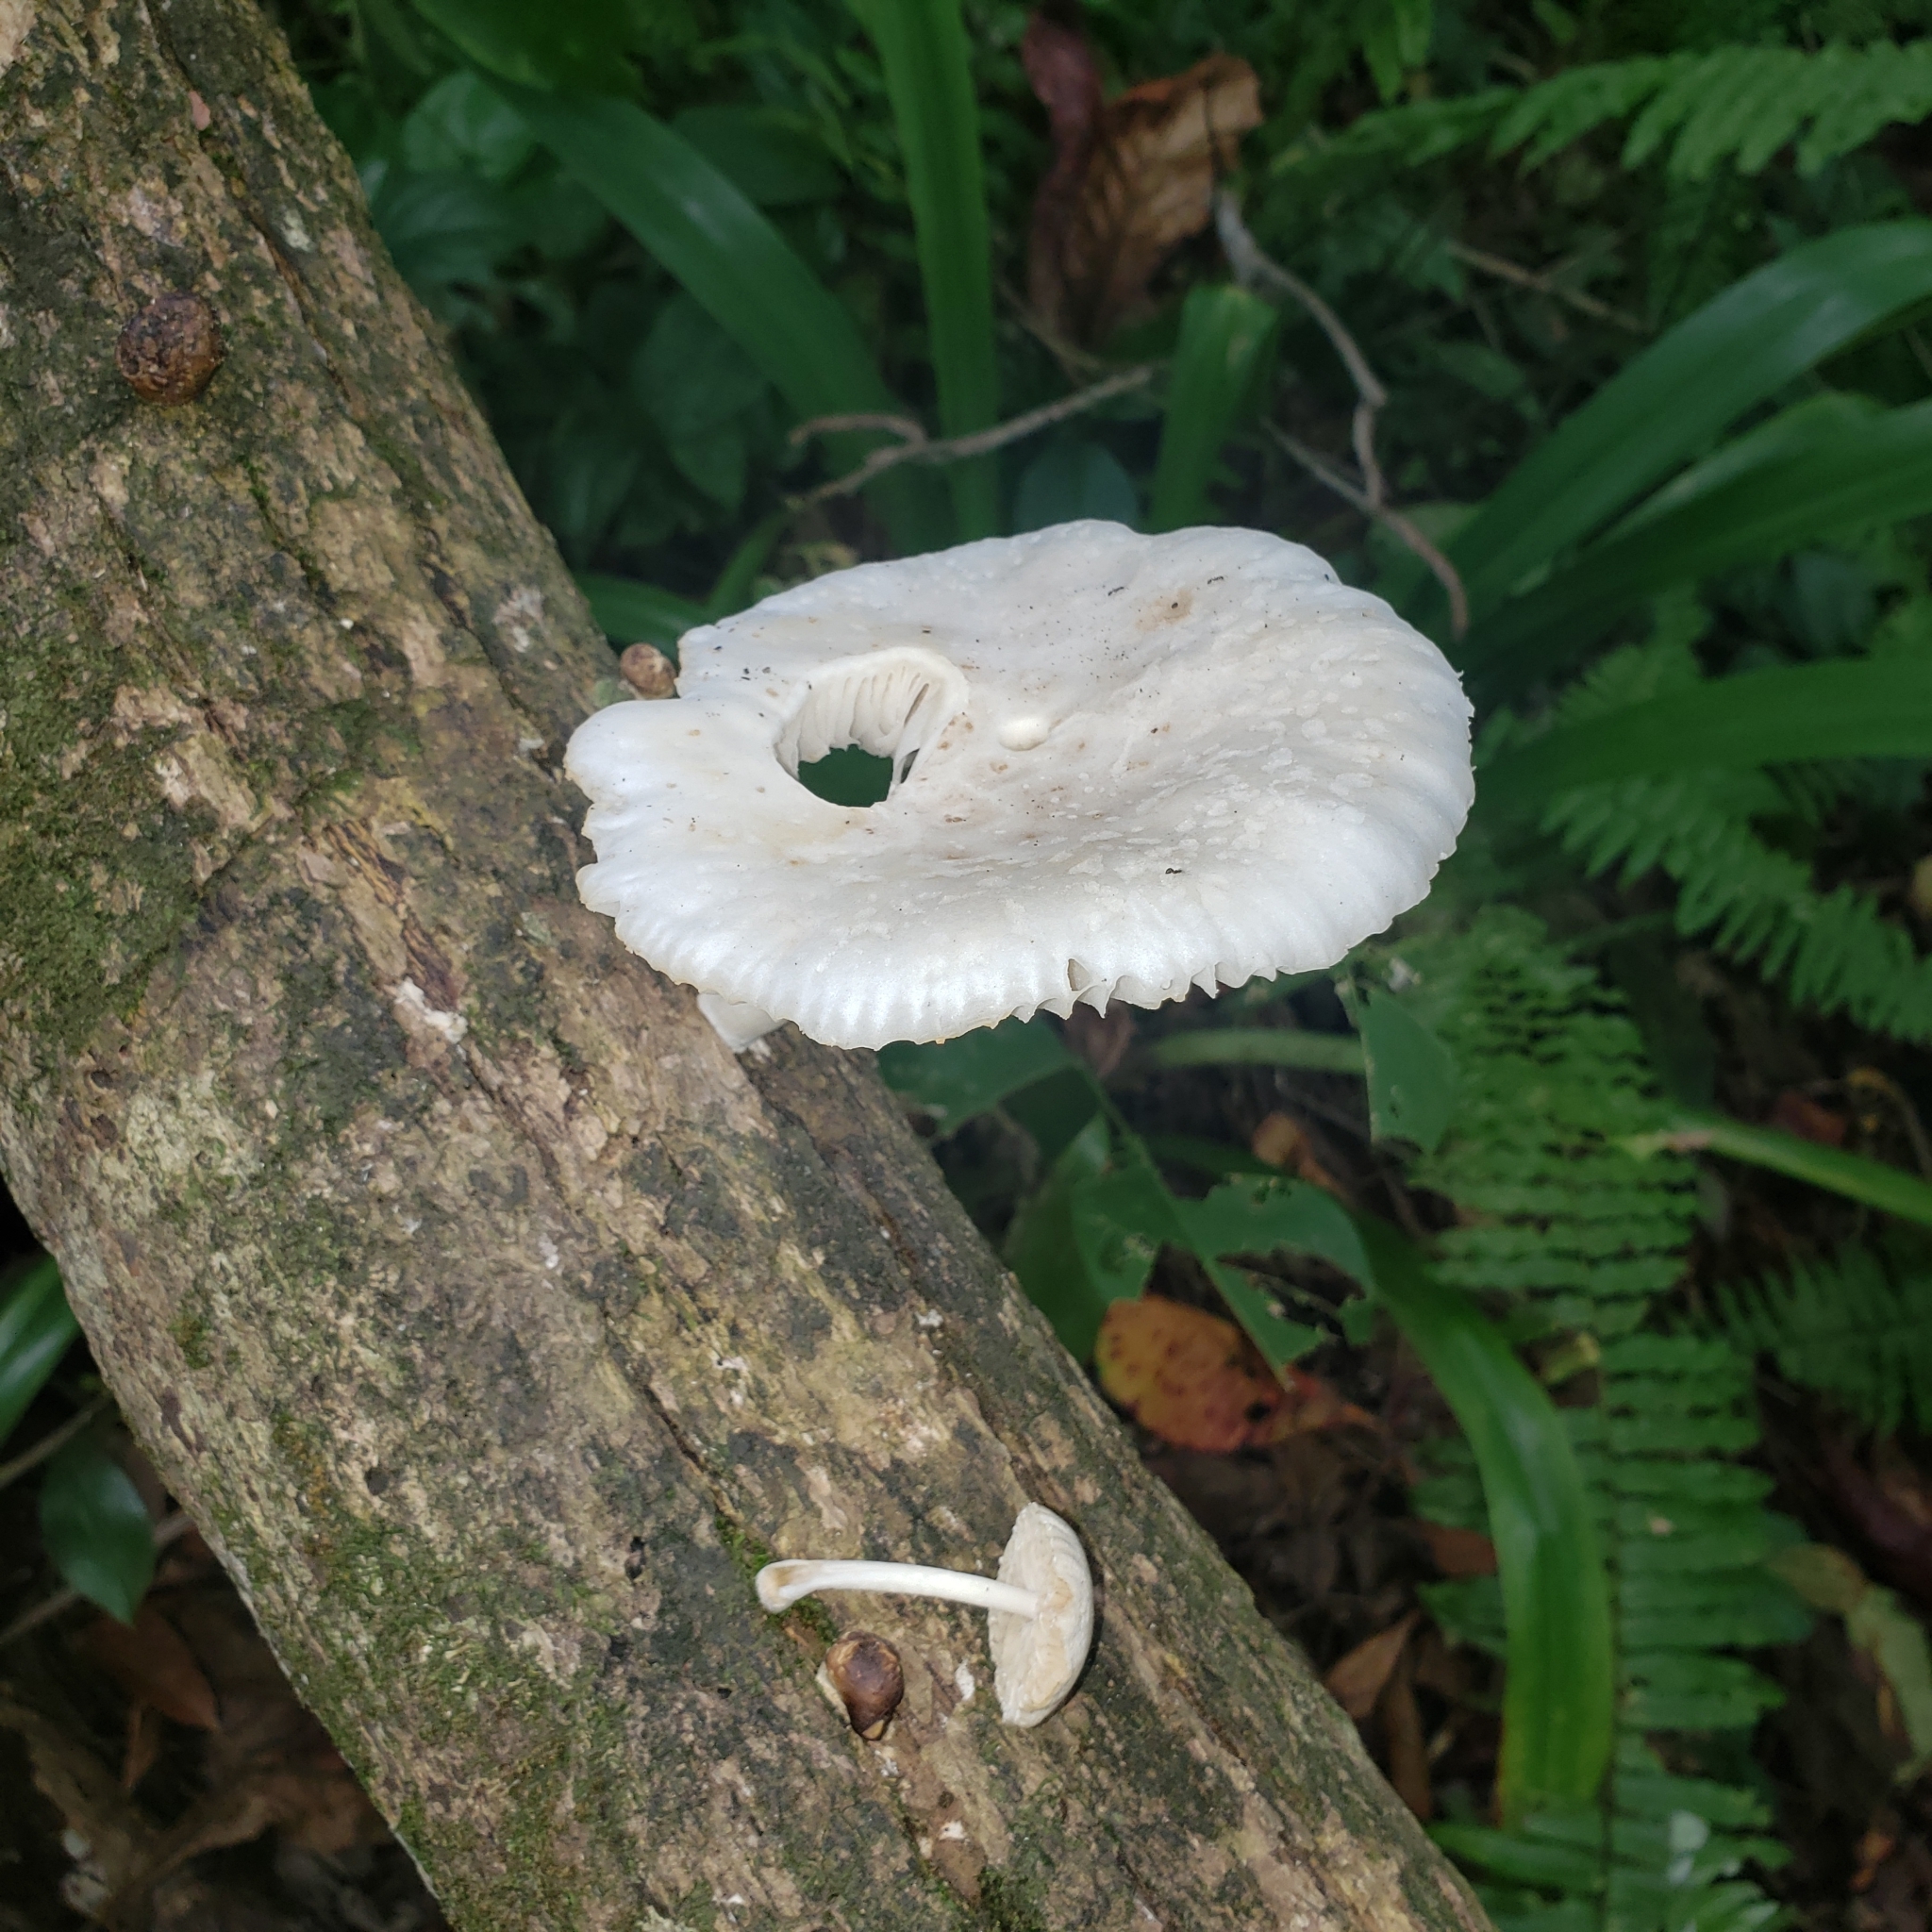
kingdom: Fungi
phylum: Basidiomycota
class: Agaricomycetes
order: Agaricales
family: Physalacriaceae
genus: Oudemansiella
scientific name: Oudemansiella canarii
